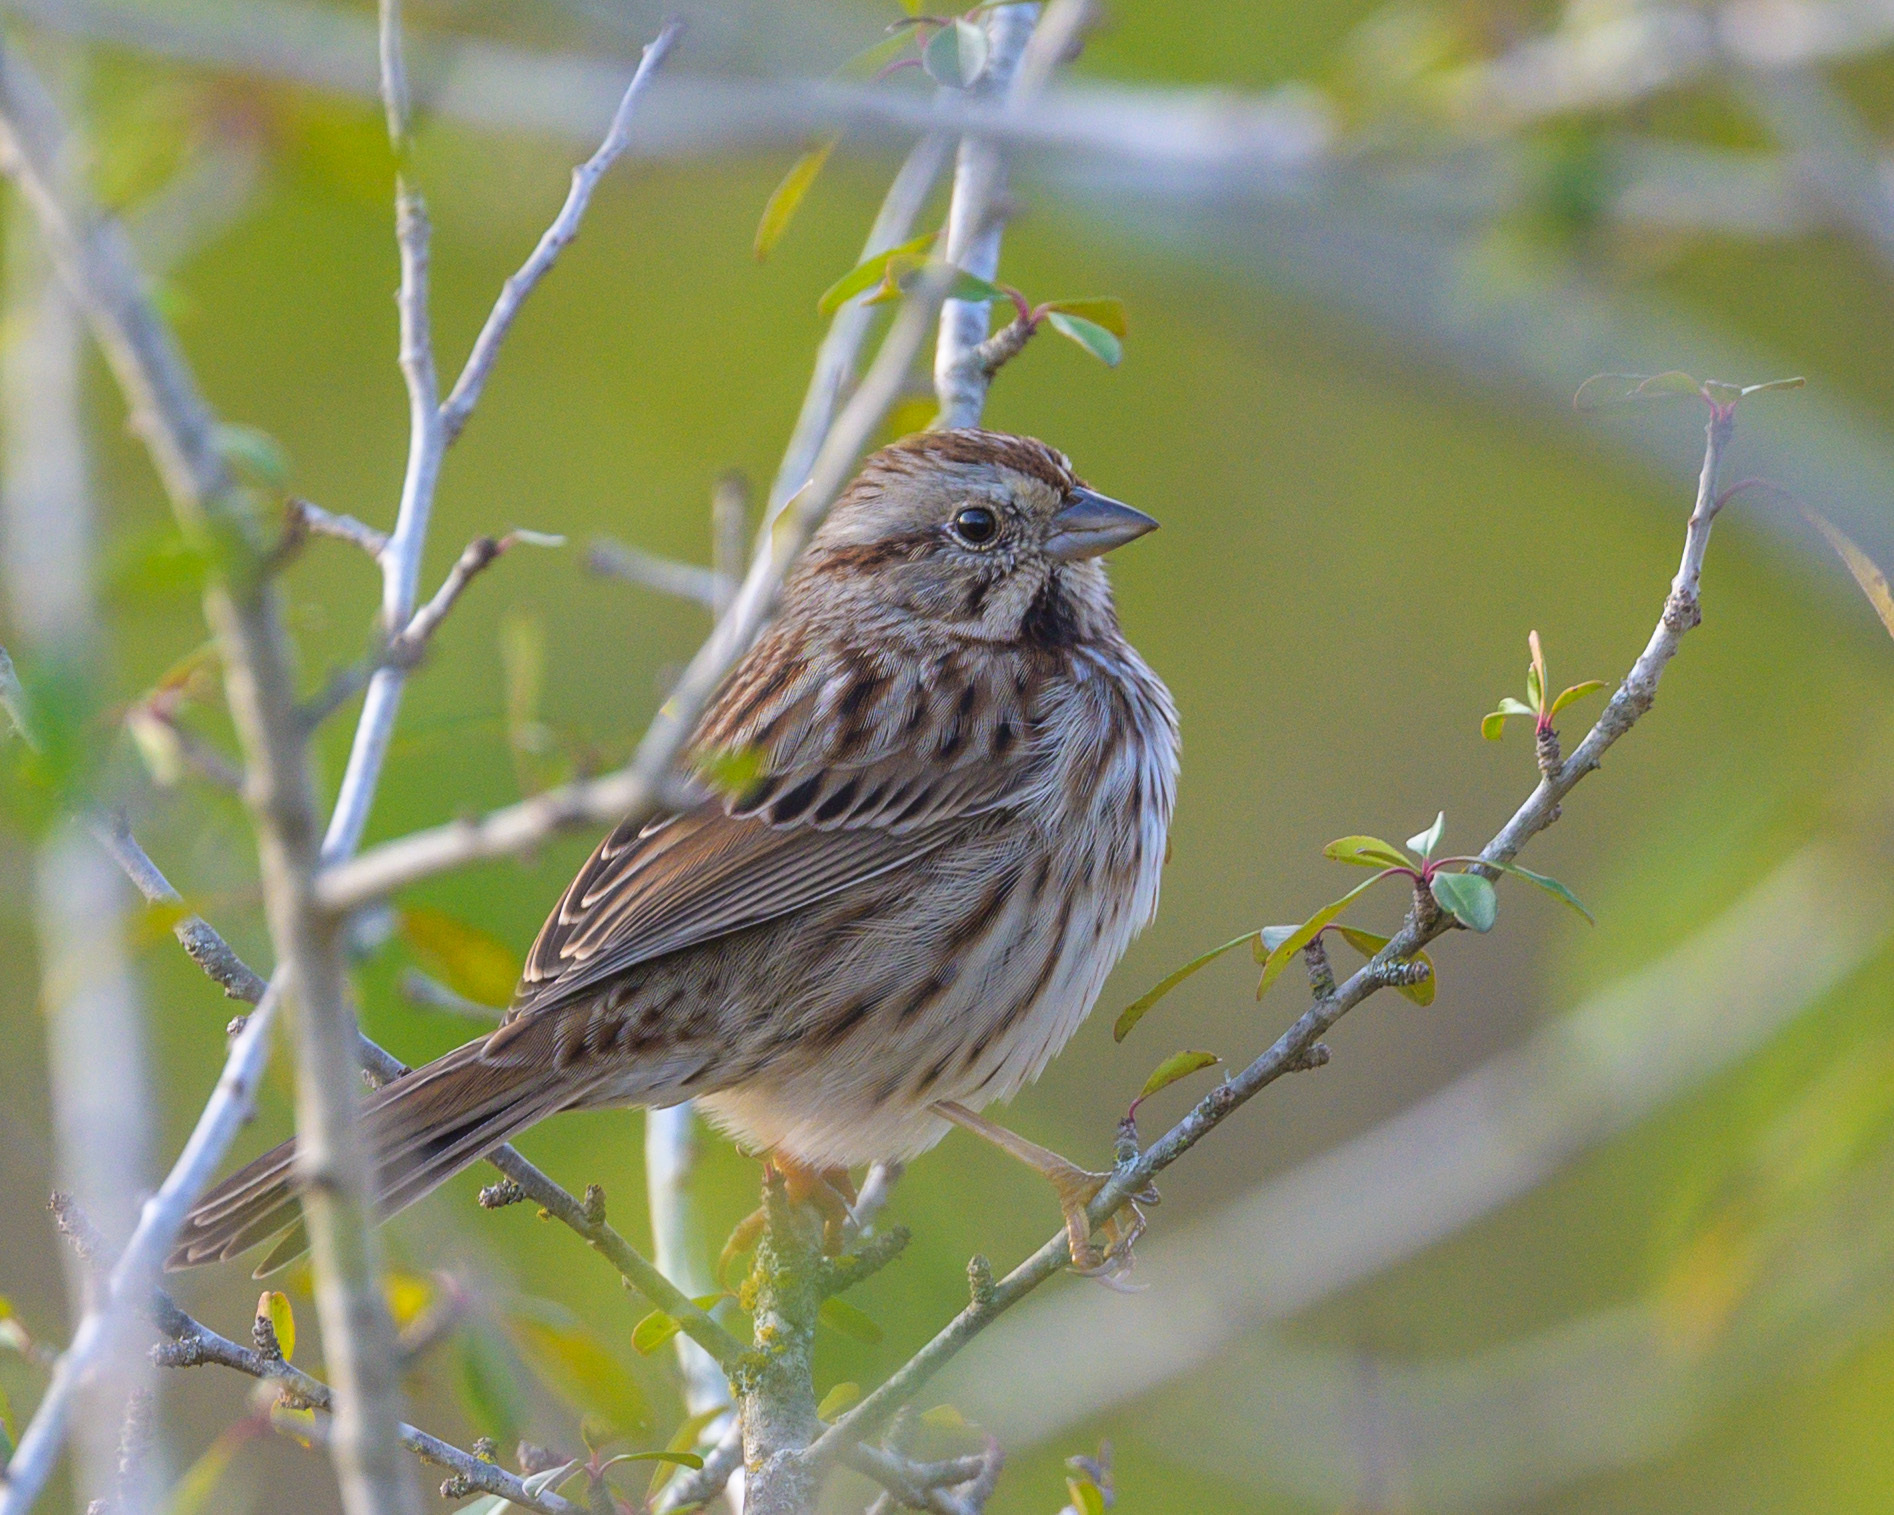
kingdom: Animalia
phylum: Chordata
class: Aves
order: Passeriformes
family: Passerellidae
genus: Melospiza
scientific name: Melospiza melodia
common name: Song sparrow
